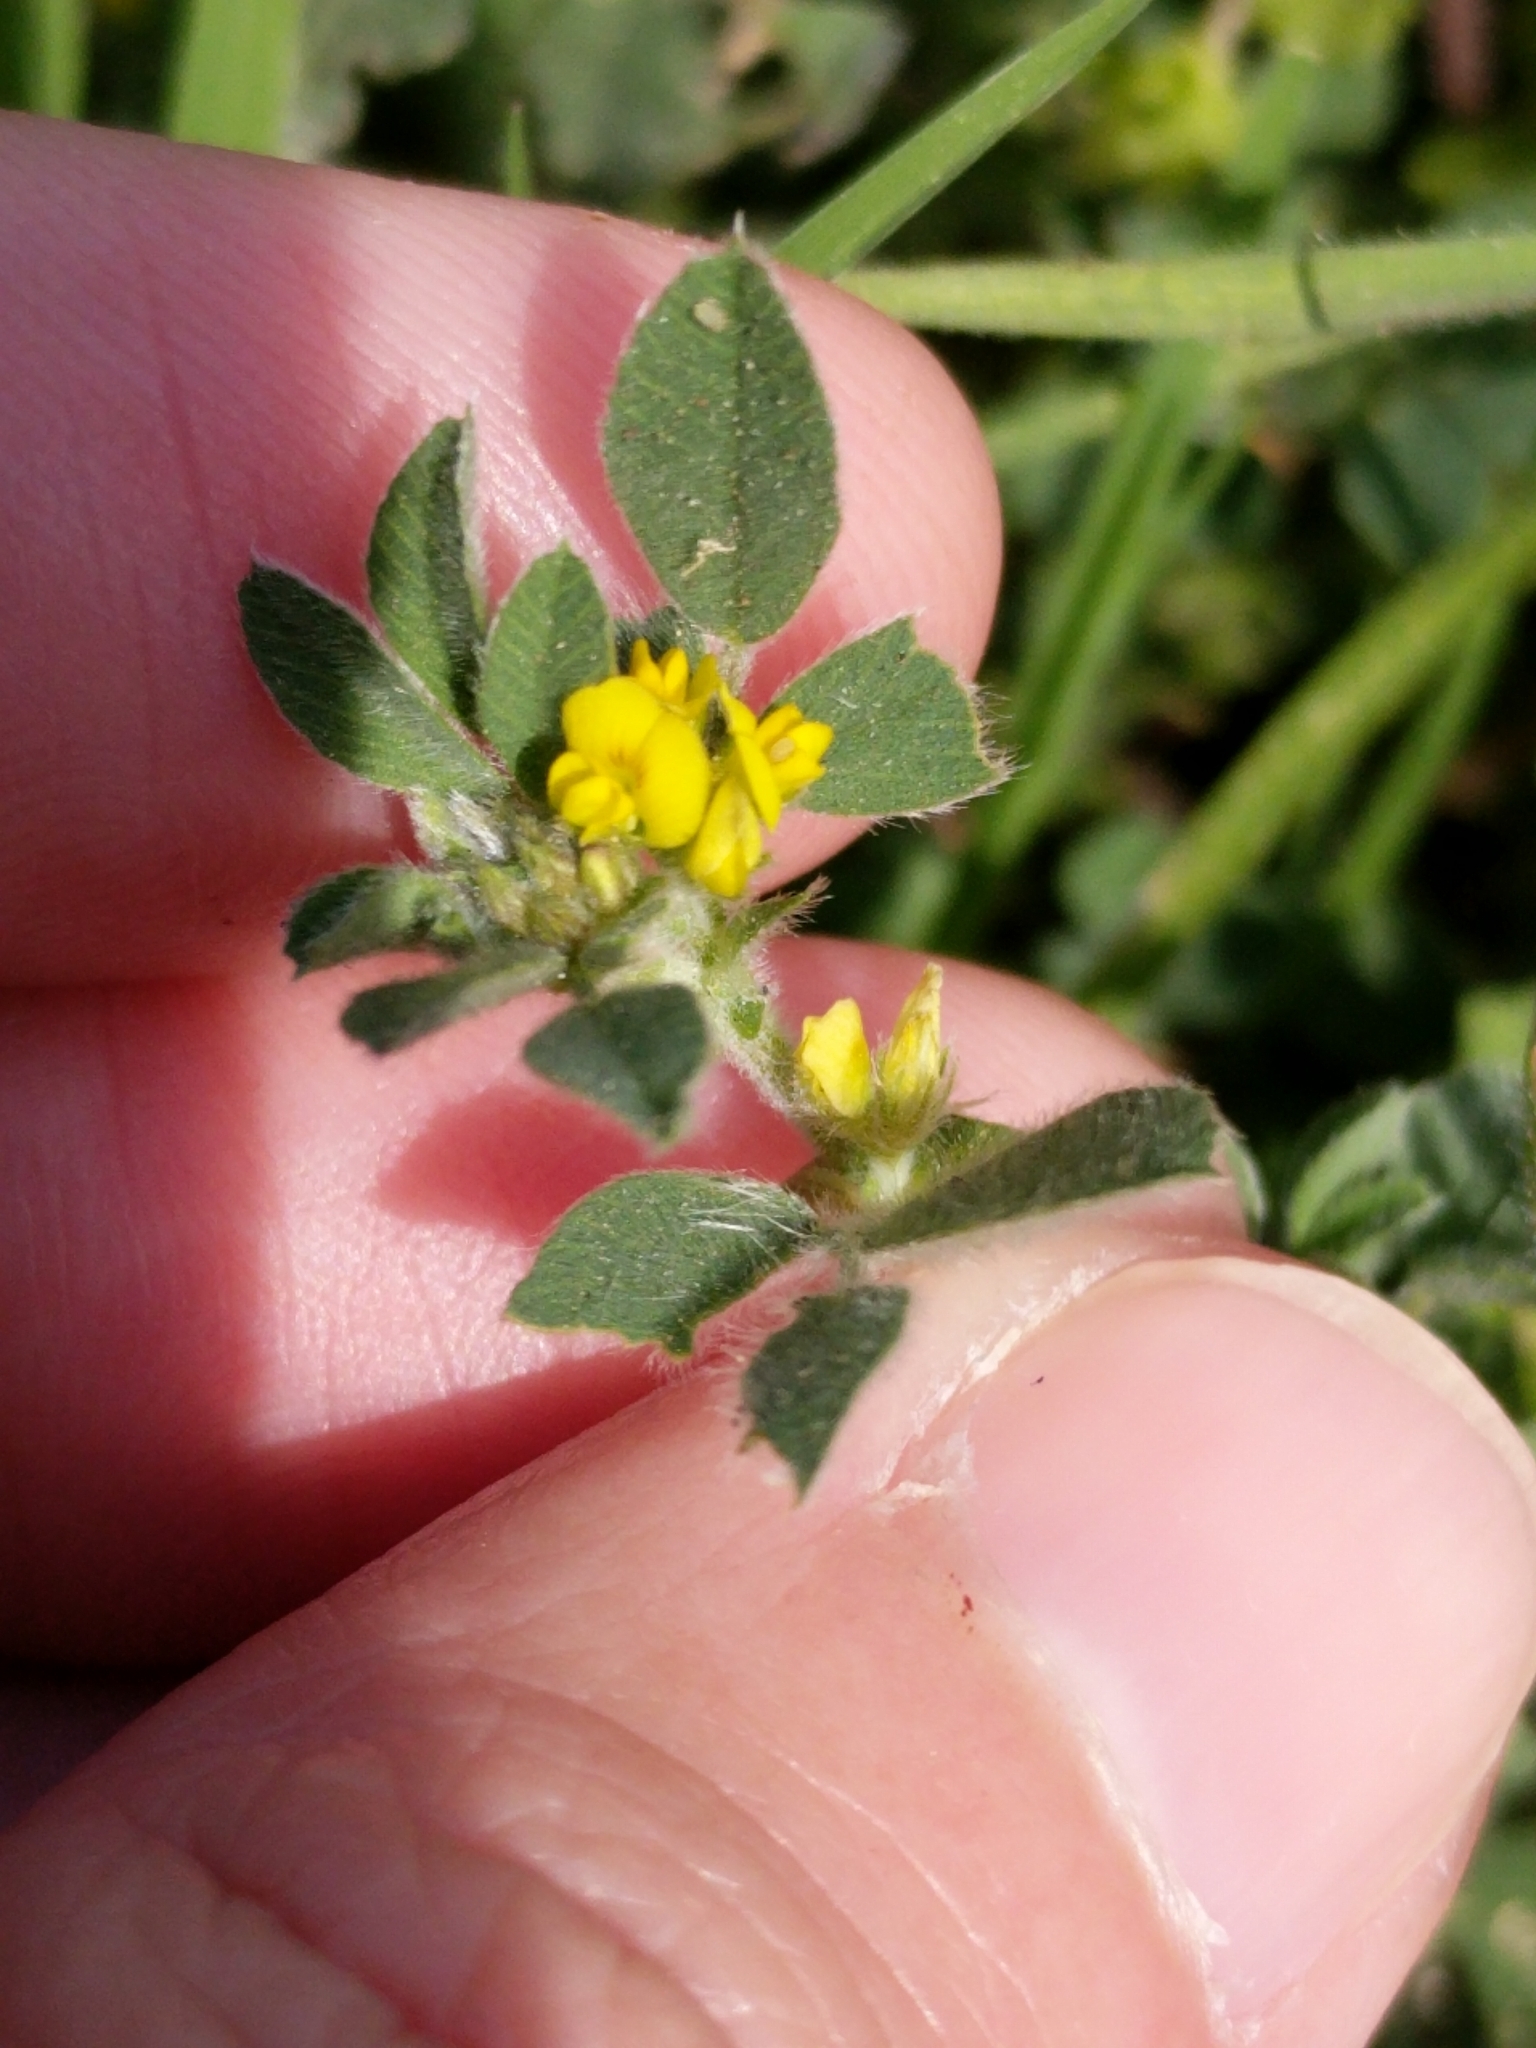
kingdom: Plantae
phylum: Tracheophyta
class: Magnoliopsida
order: Fabales
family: Fabaceae
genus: Medicago
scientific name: Medicago minima
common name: Little bur-clover
